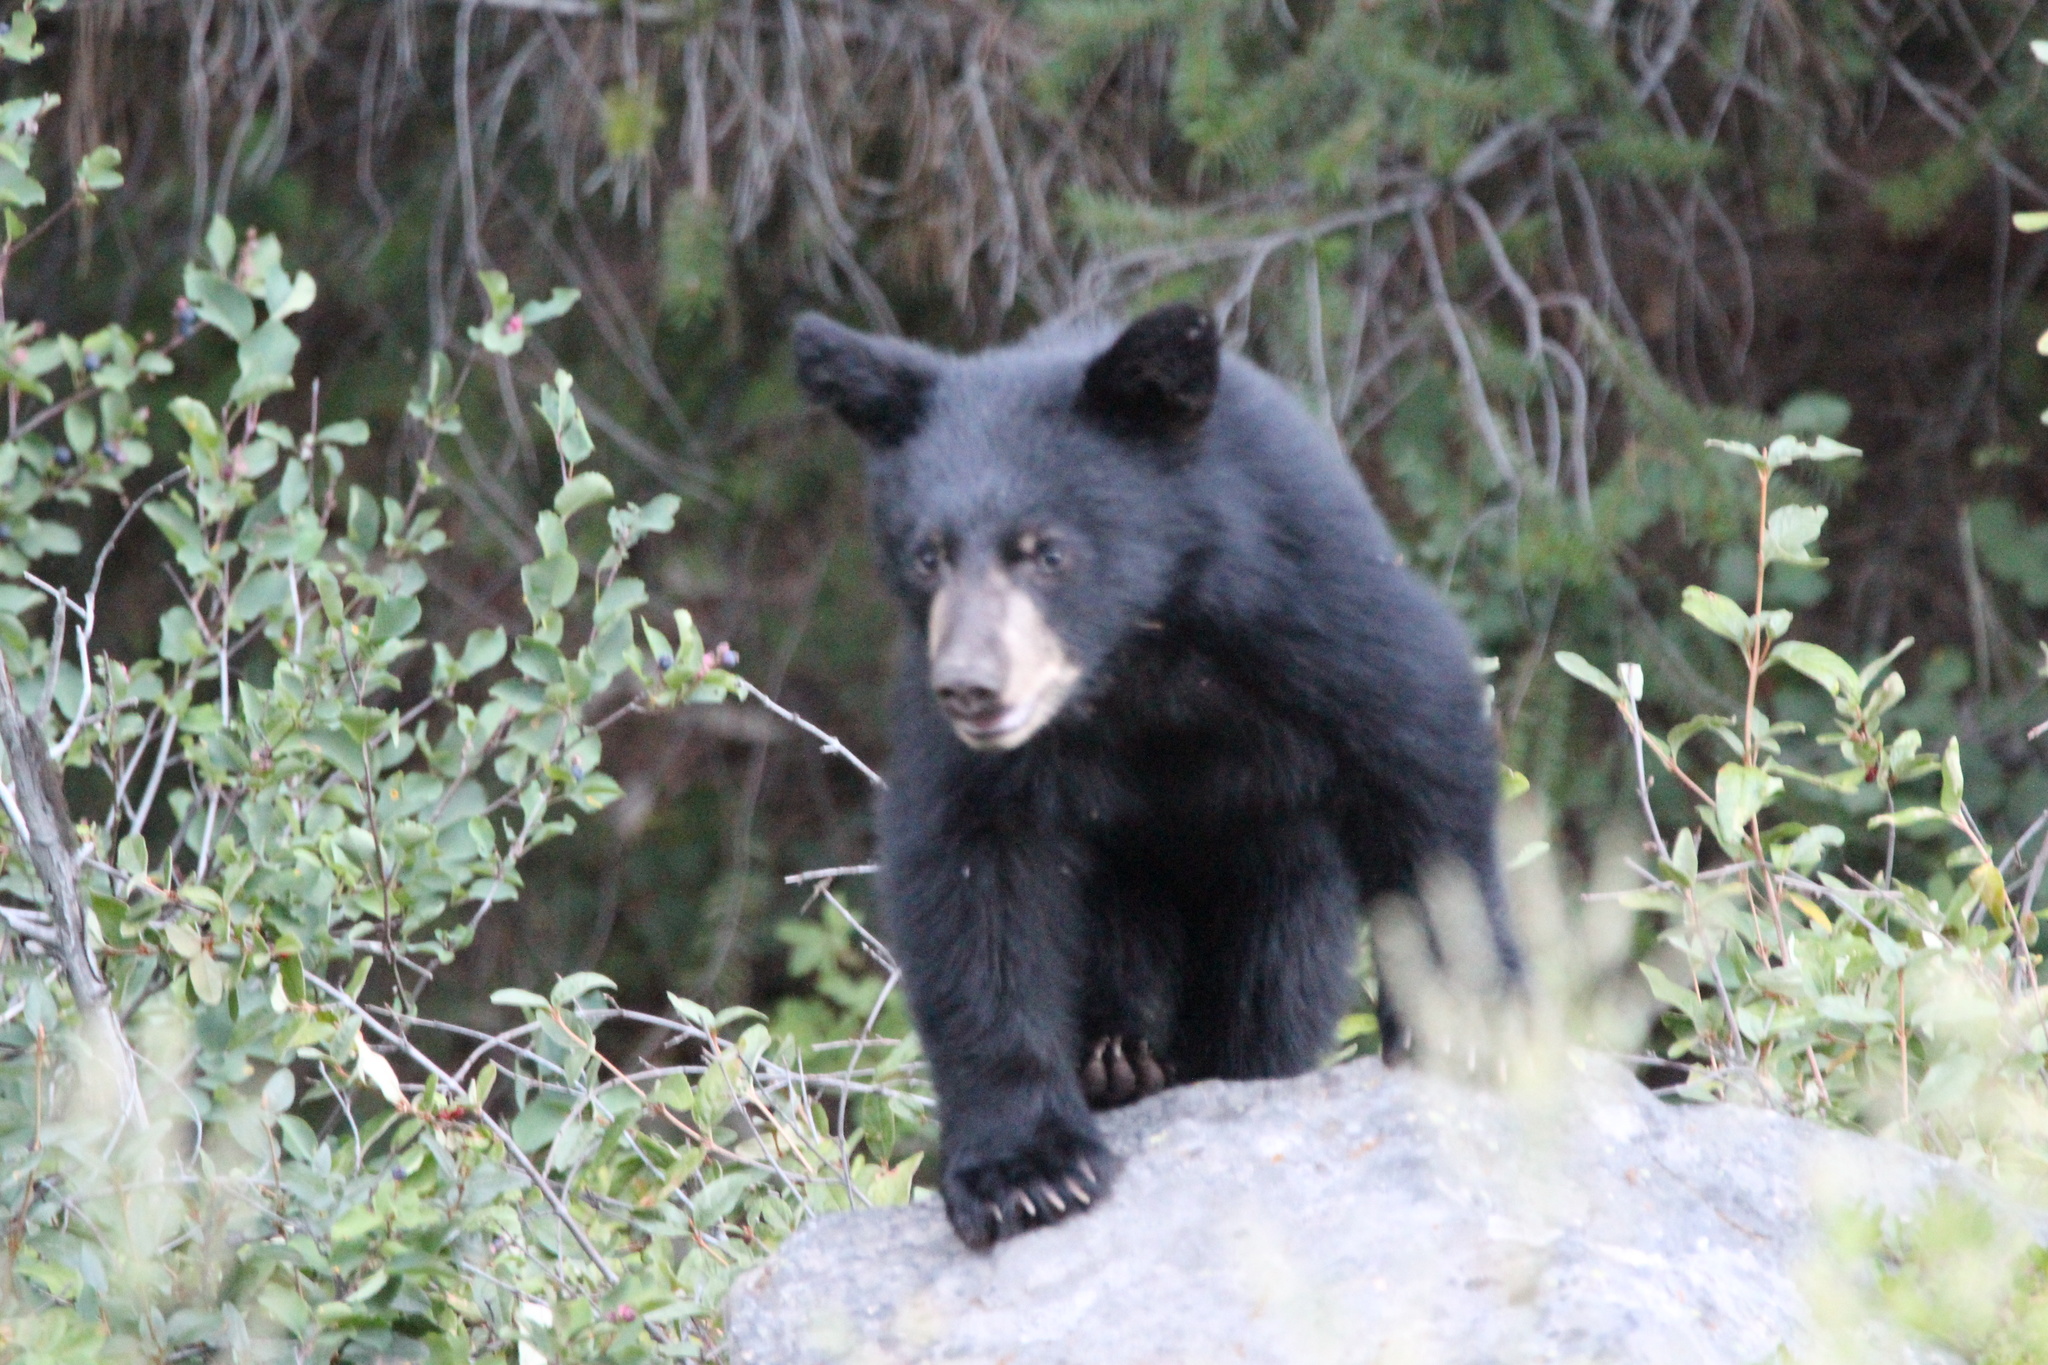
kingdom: Animalia
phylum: Chordata
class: Mammalia
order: Carnivora
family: Ursidae
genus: Ursus
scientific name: Ursus americanus
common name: American black bear
